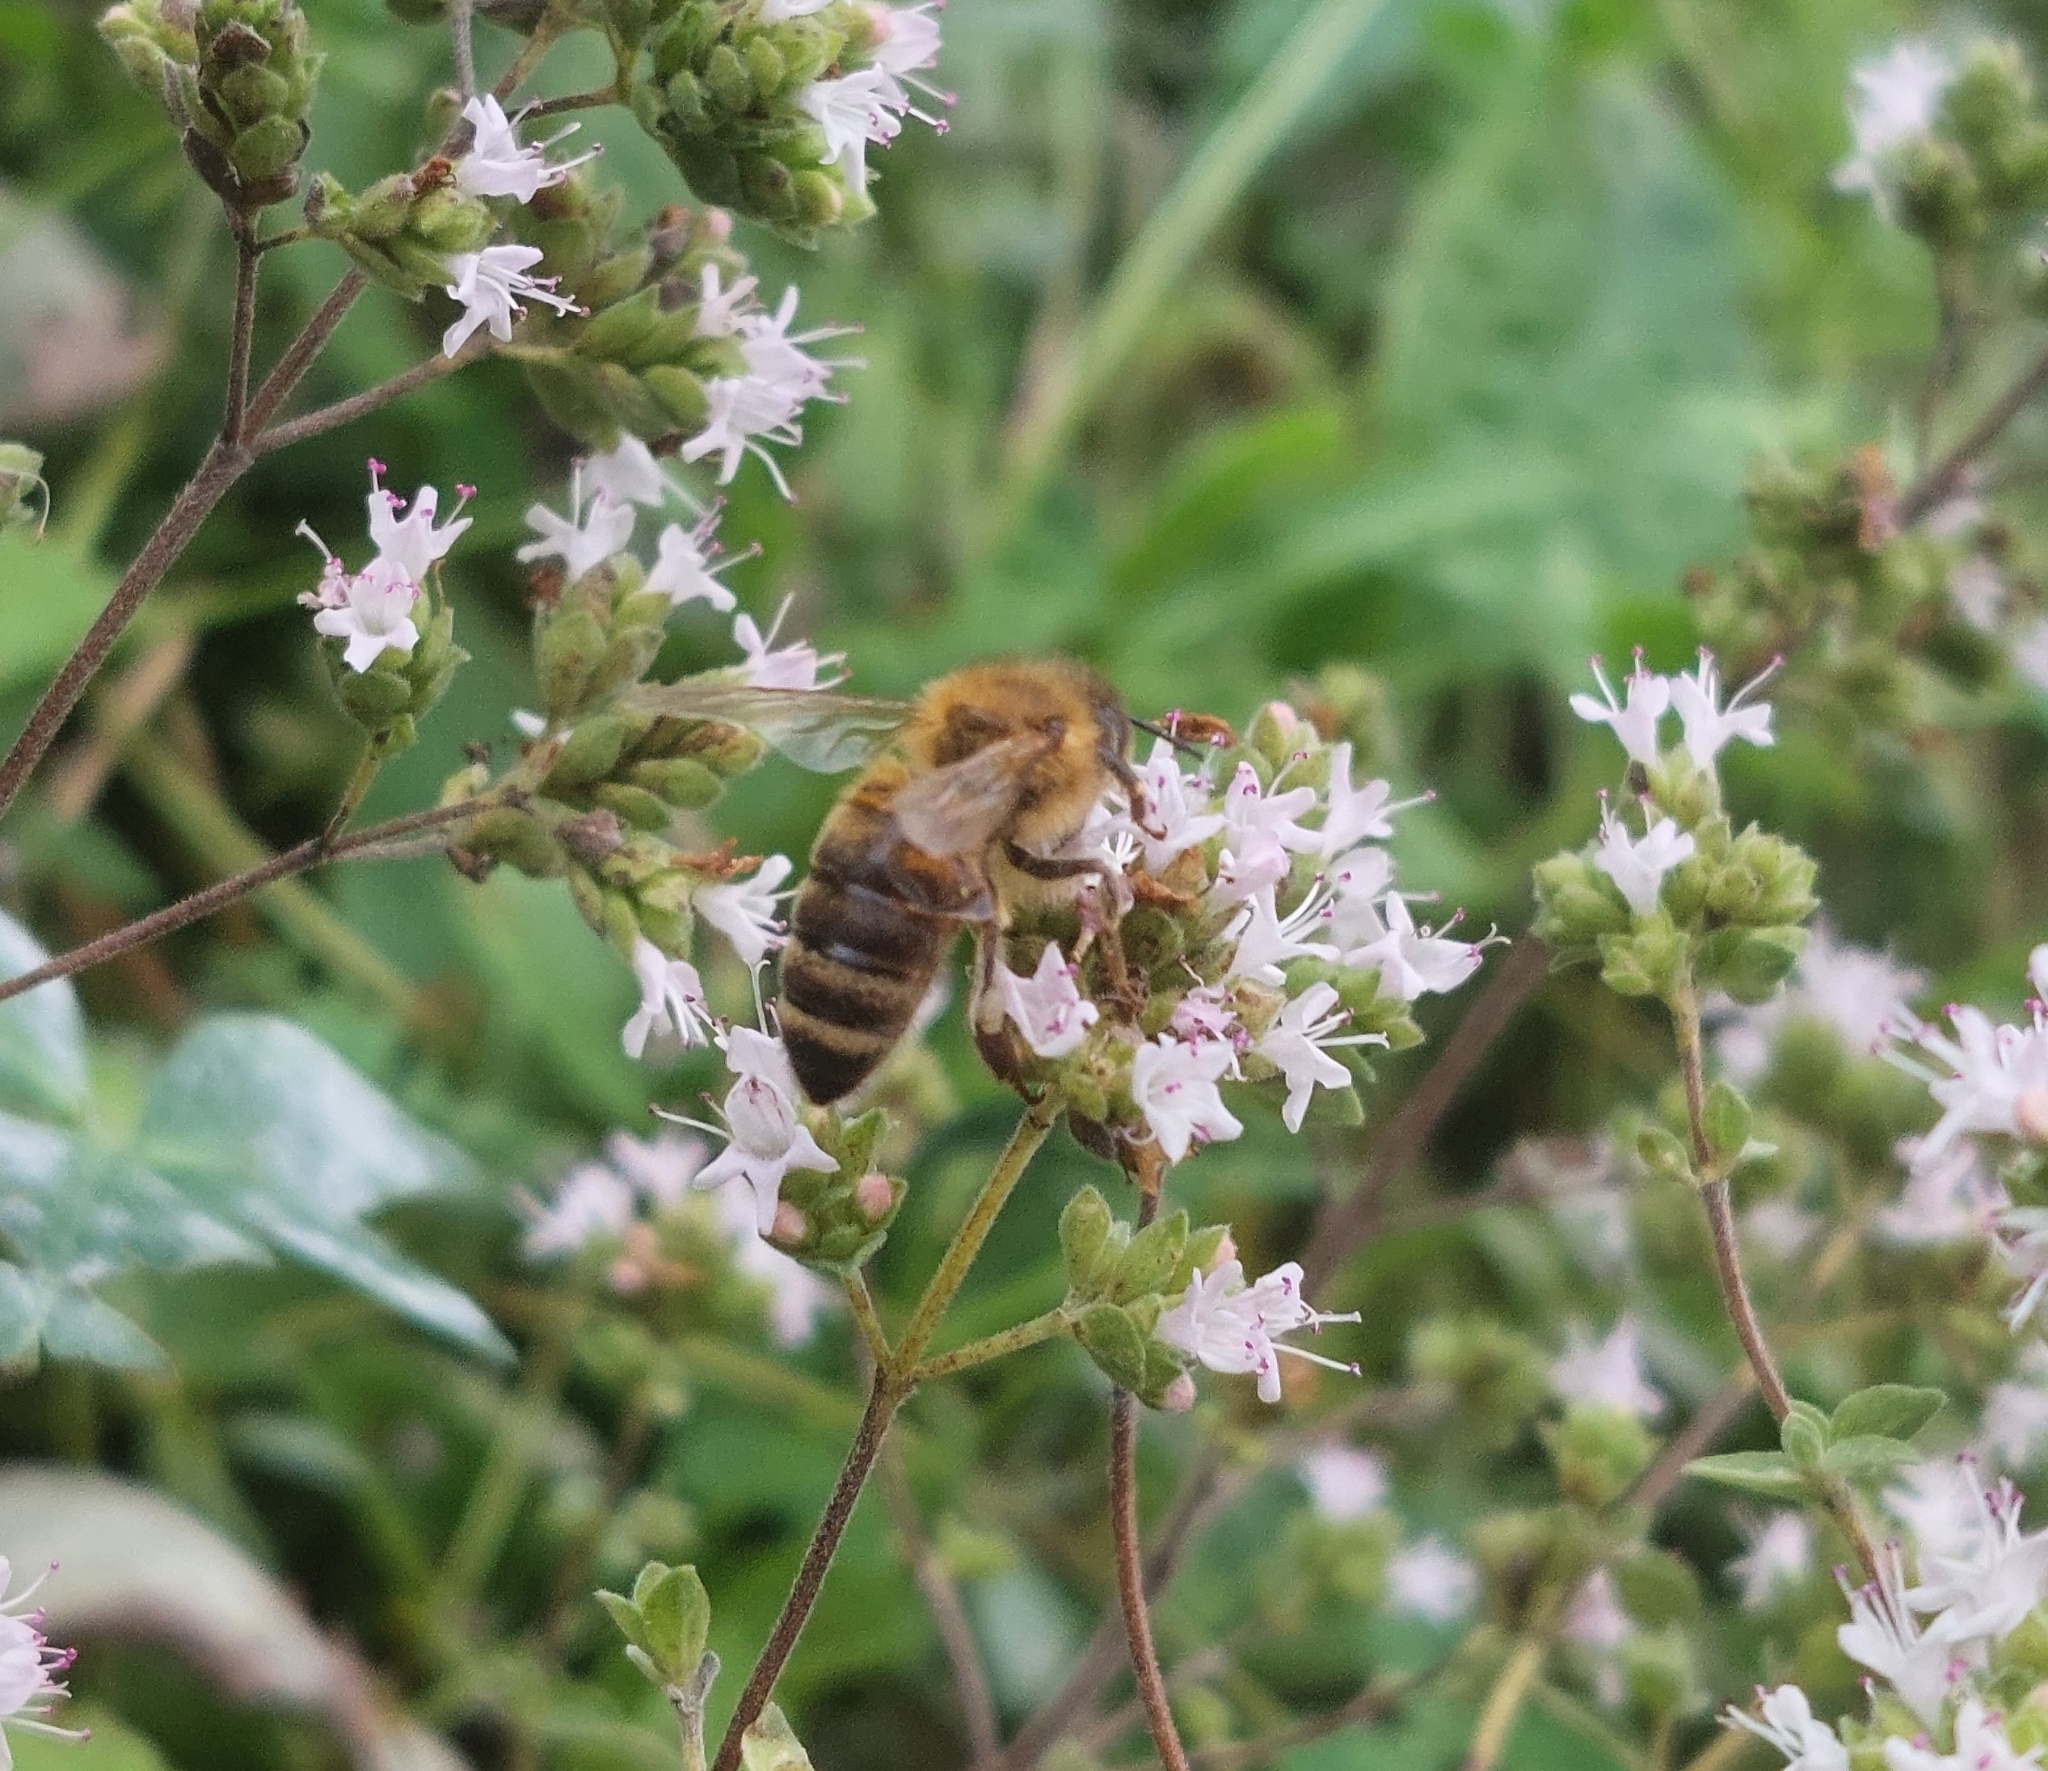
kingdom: Animalia
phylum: Arthropoda
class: Insecta
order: Hymenoptera
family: Apidae
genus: Apis
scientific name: Apis mellifera
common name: Honey bee
